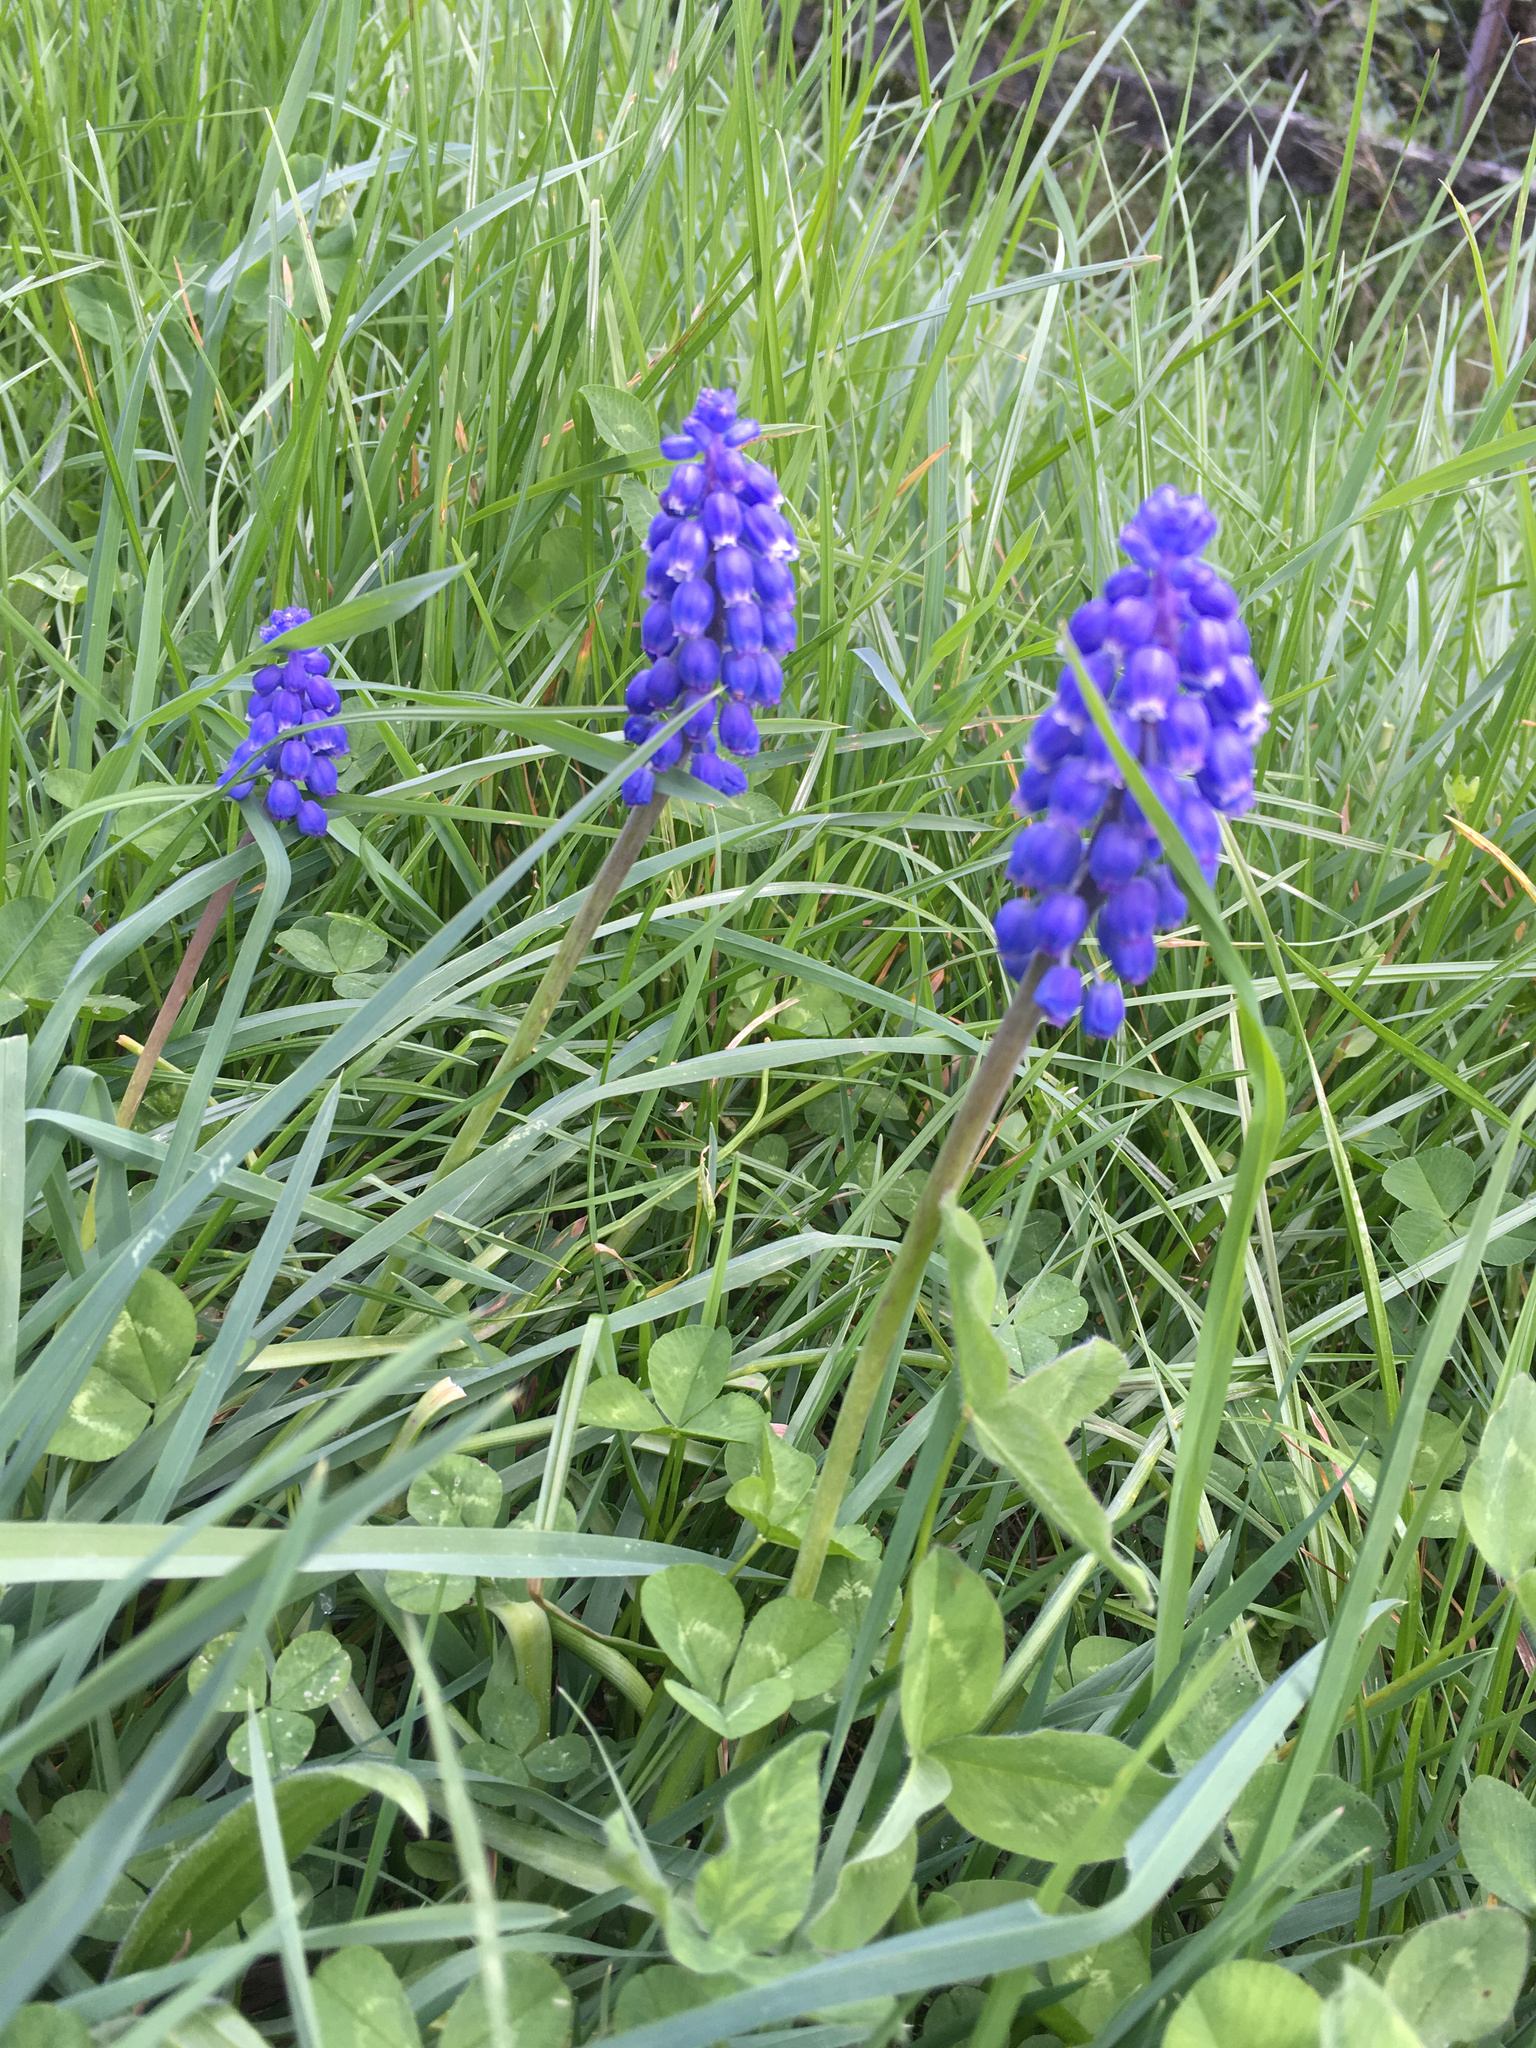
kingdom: Plantae
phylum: Tracheophyta
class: Liliopsida
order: Asparagales
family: Asparagaceae
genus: Muscari
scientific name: Muscari armeniacum
